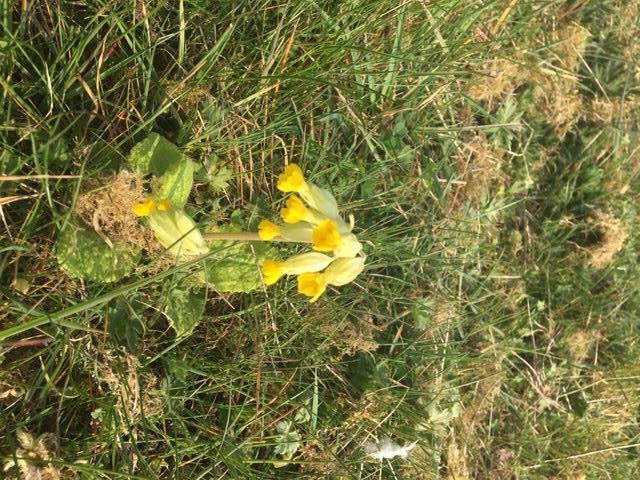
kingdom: Plantae
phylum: Tracheophyta
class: Magnoliopsida
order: Ericales
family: Primulaceae
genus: Primula
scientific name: Primula veris
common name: Cowslip
